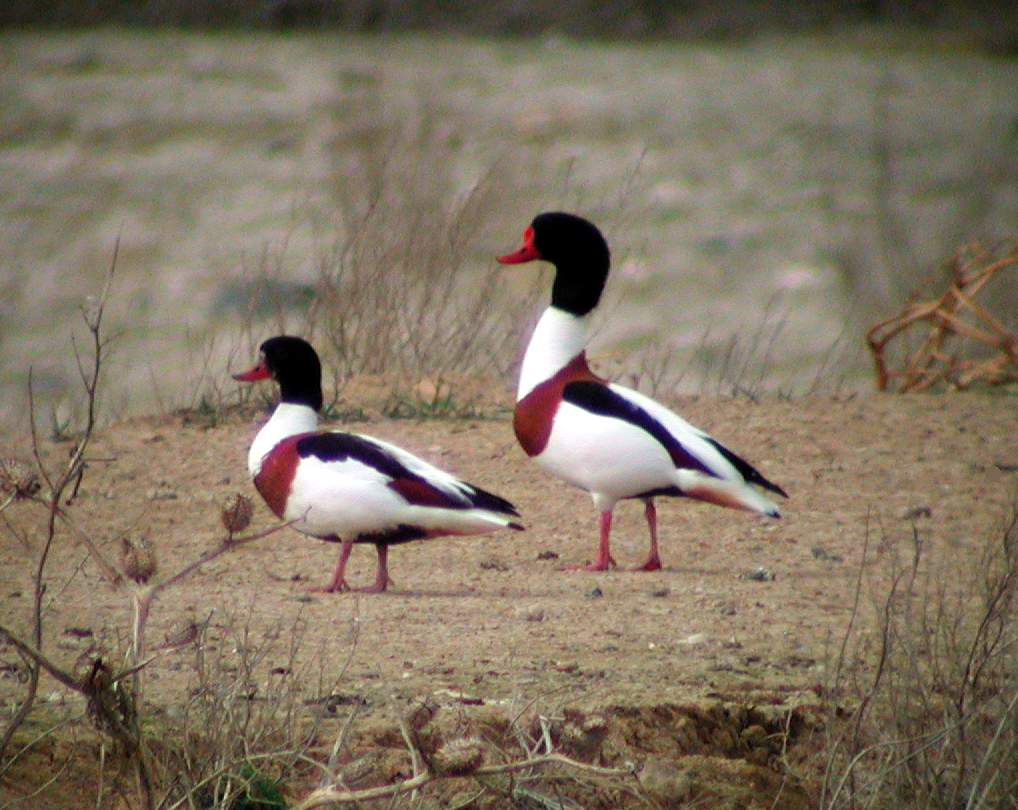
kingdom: Animalia
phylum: Chordata
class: Aves
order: Anseriformes
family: Anatidae
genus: Tadorna
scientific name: Tadorna tadorna
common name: Common shelduck
